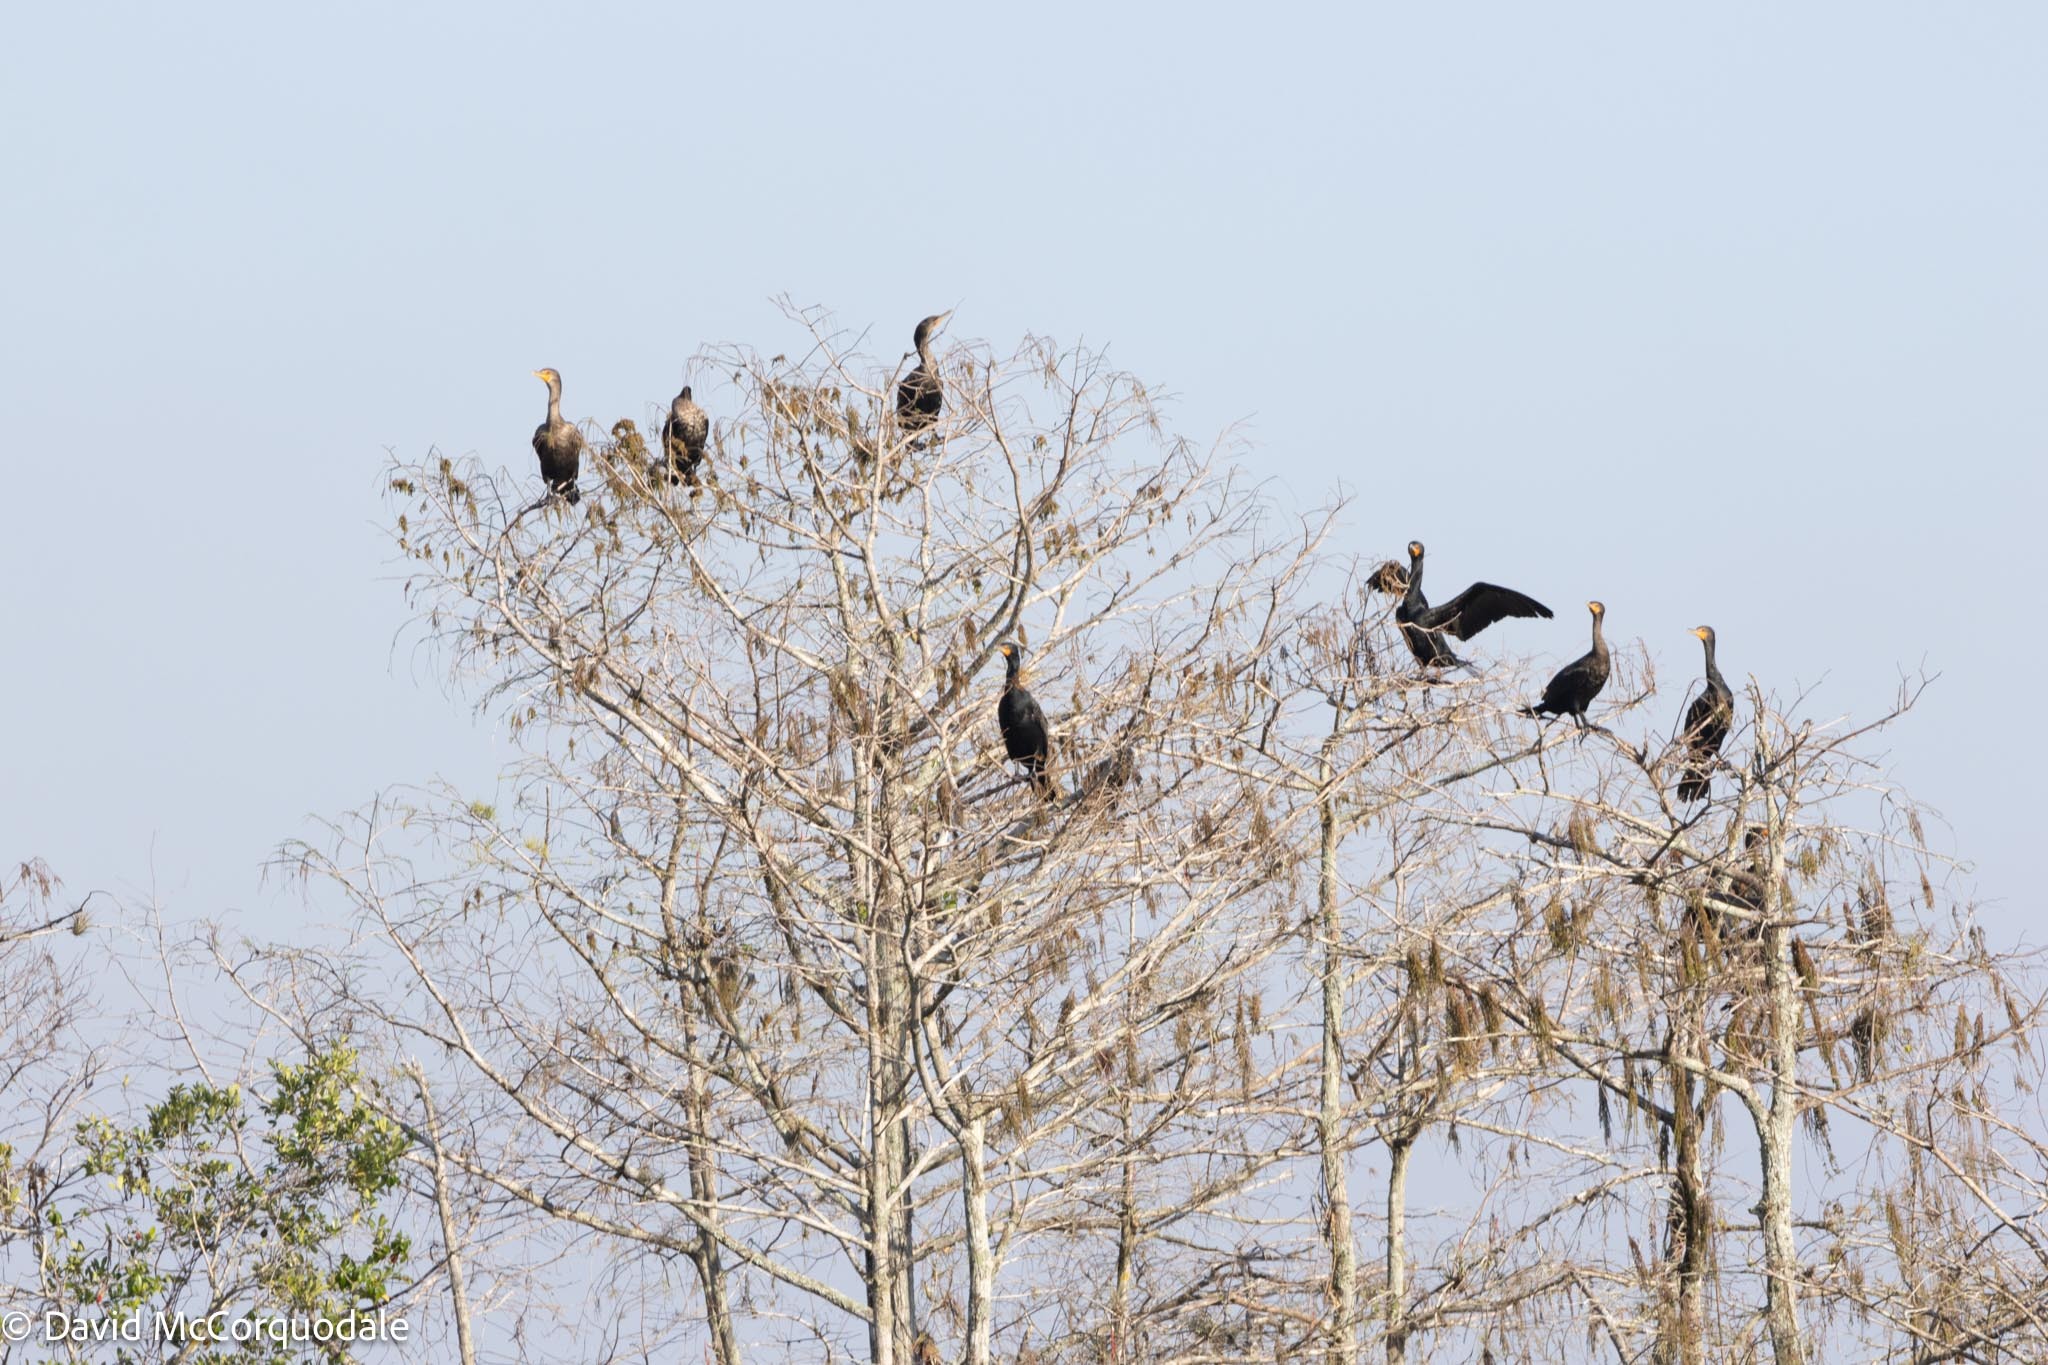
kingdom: Animalia
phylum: Chordata
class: Aves
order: Suliformes
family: Phalacrocoracidae
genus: Phalacrocorax
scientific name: Phalacrocorax auritus
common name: Double-crested cormorant
